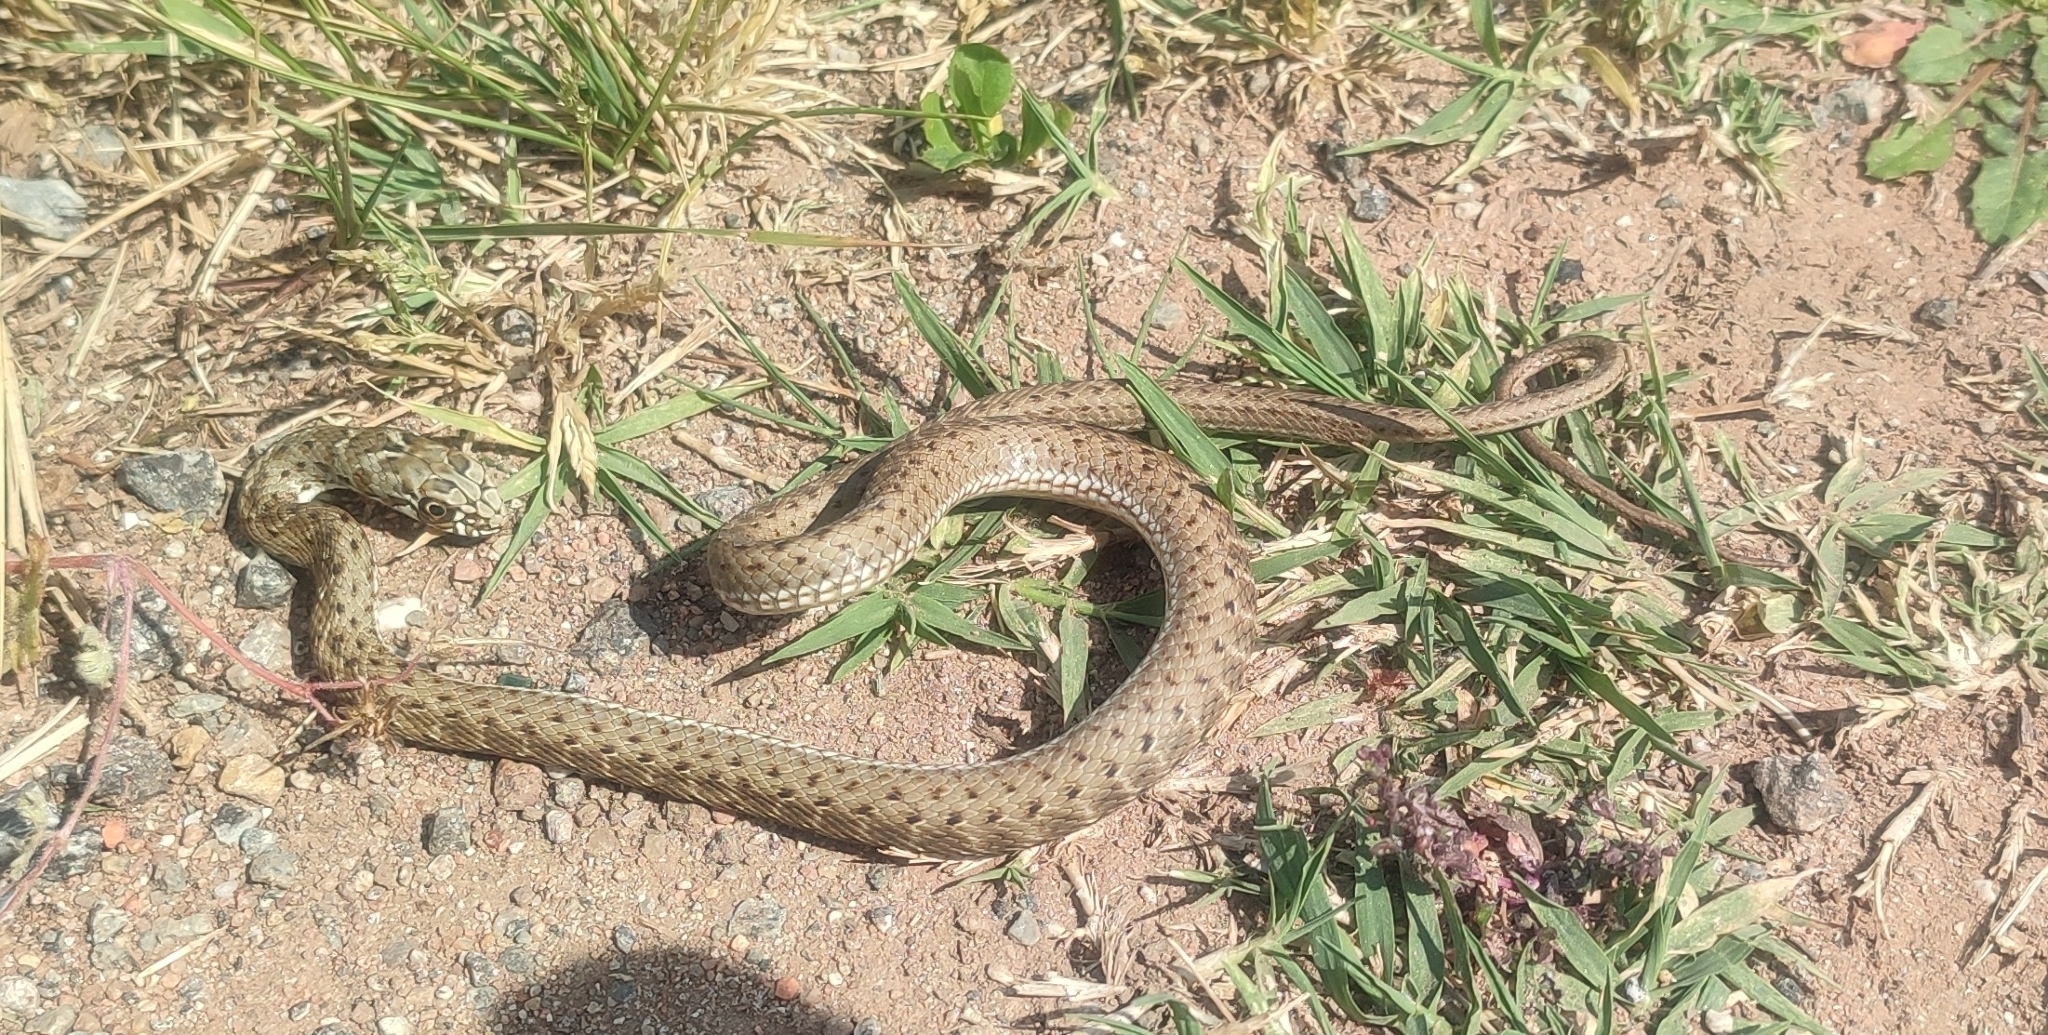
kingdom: Animalia
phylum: Chordata
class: Squamata
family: Psammophiidae
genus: Malpolon
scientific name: Malpolon monspessulanus
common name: Montpellier snake
